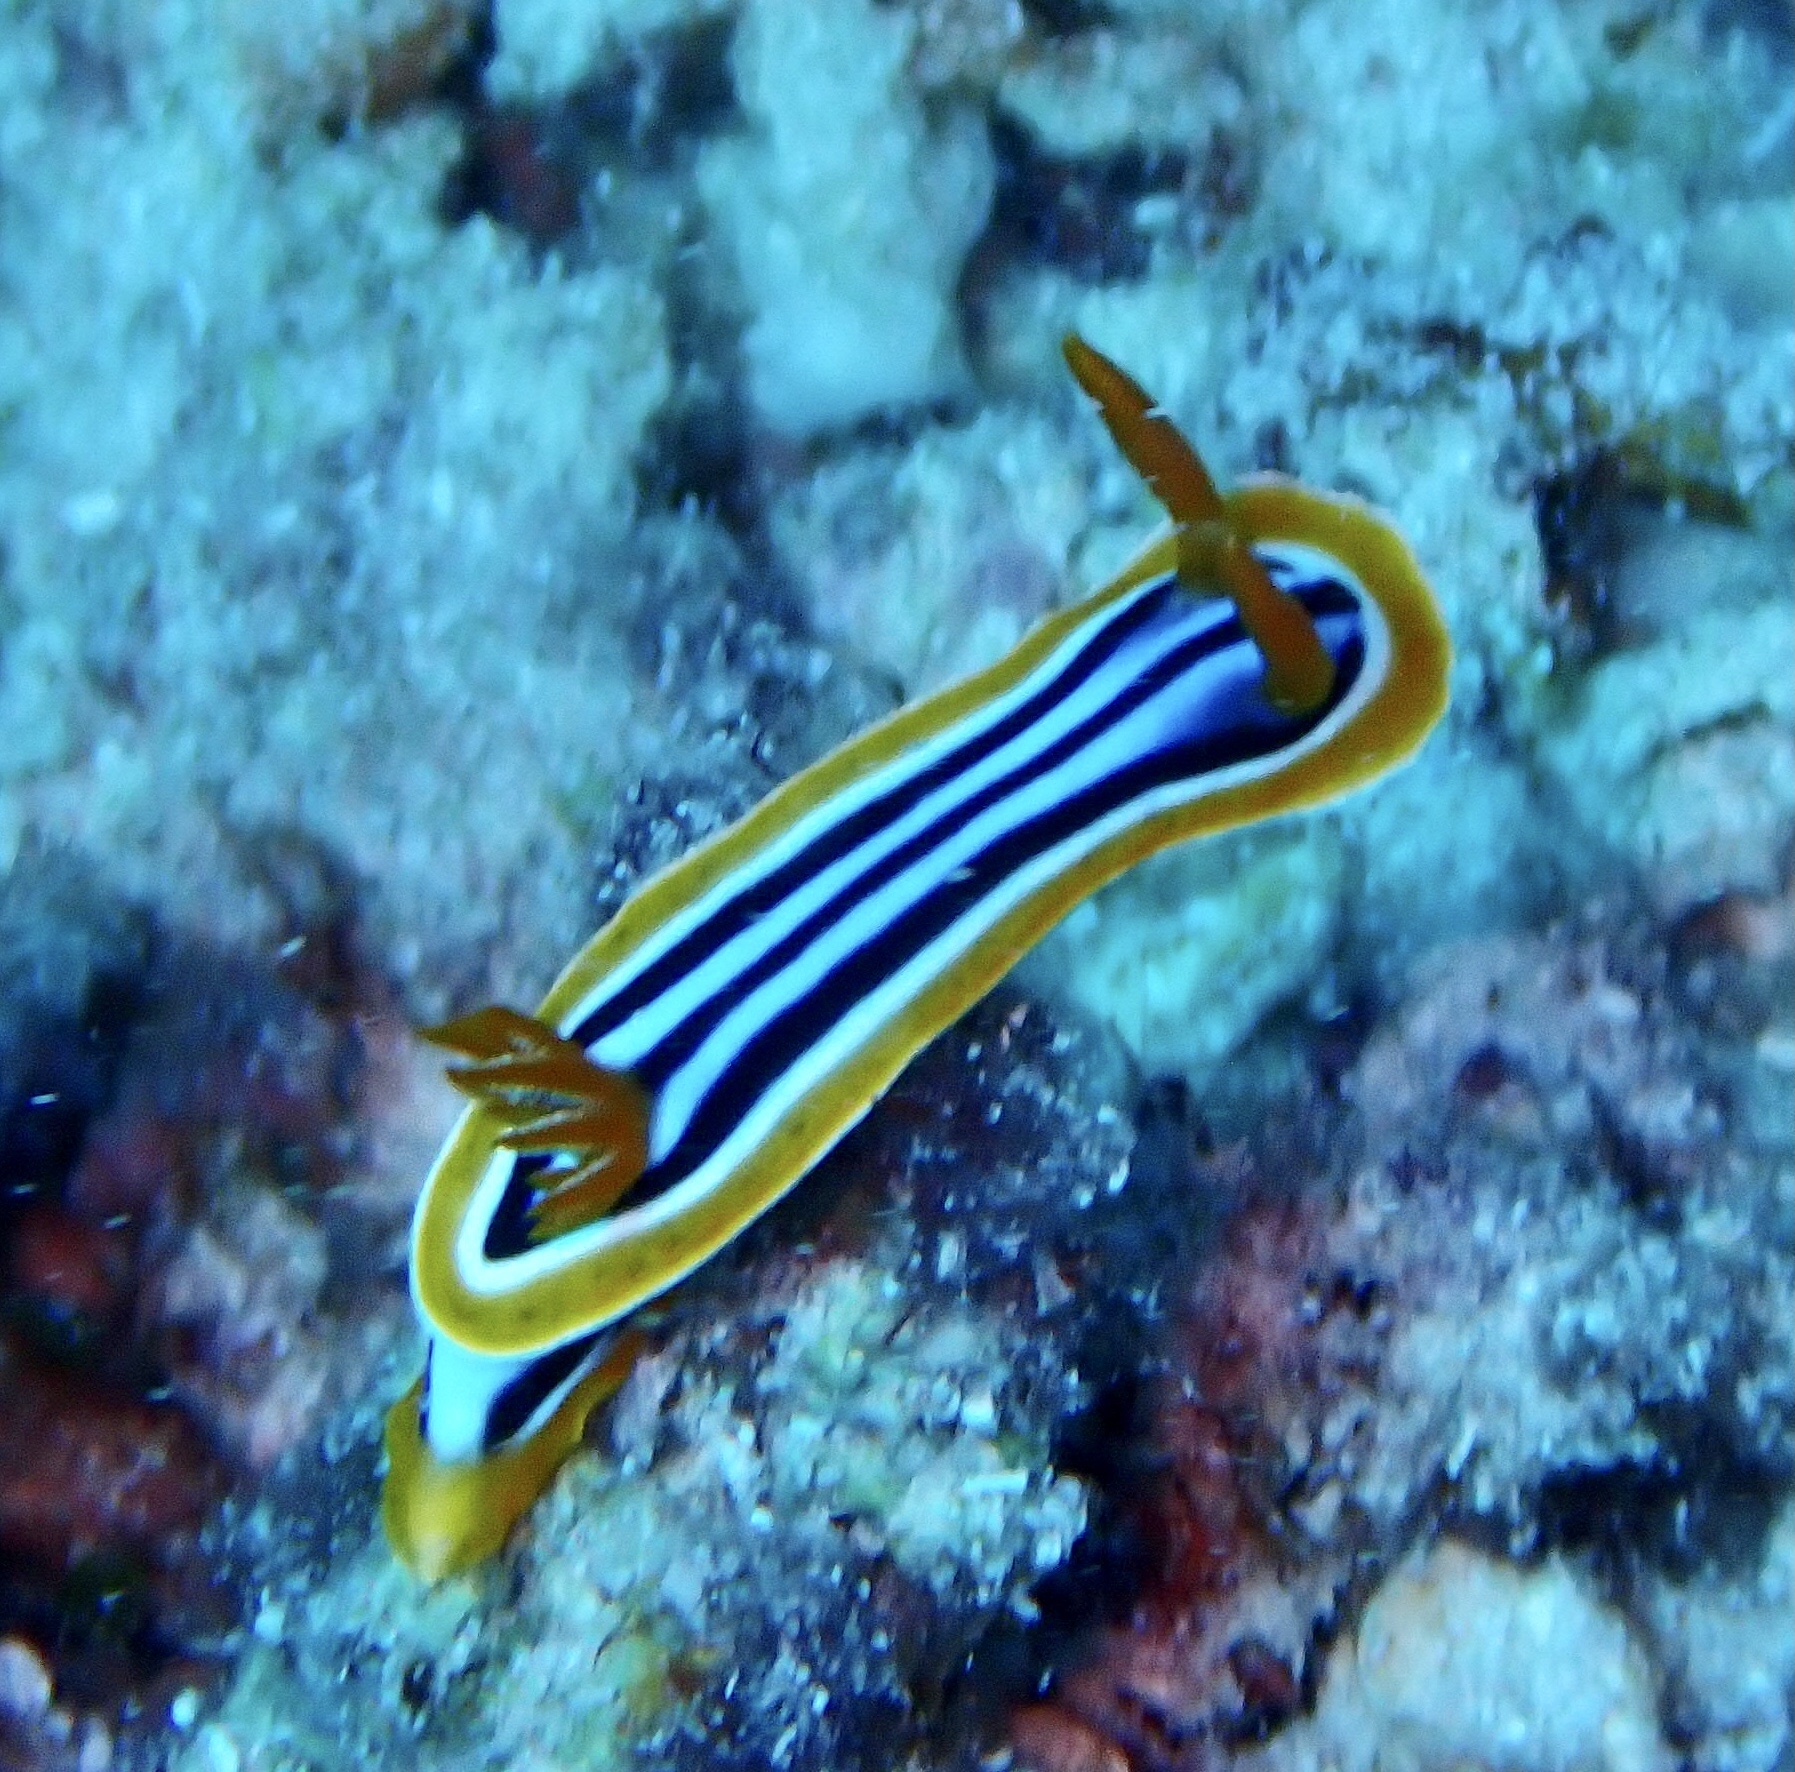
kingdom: Animalia
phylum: Mollusca
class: Gastropoda
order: Nudibranchia
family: Chromodorididae
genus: Chromodoris
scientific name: Chromodoris quadricolor
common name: Striped pyjama nudibranch
